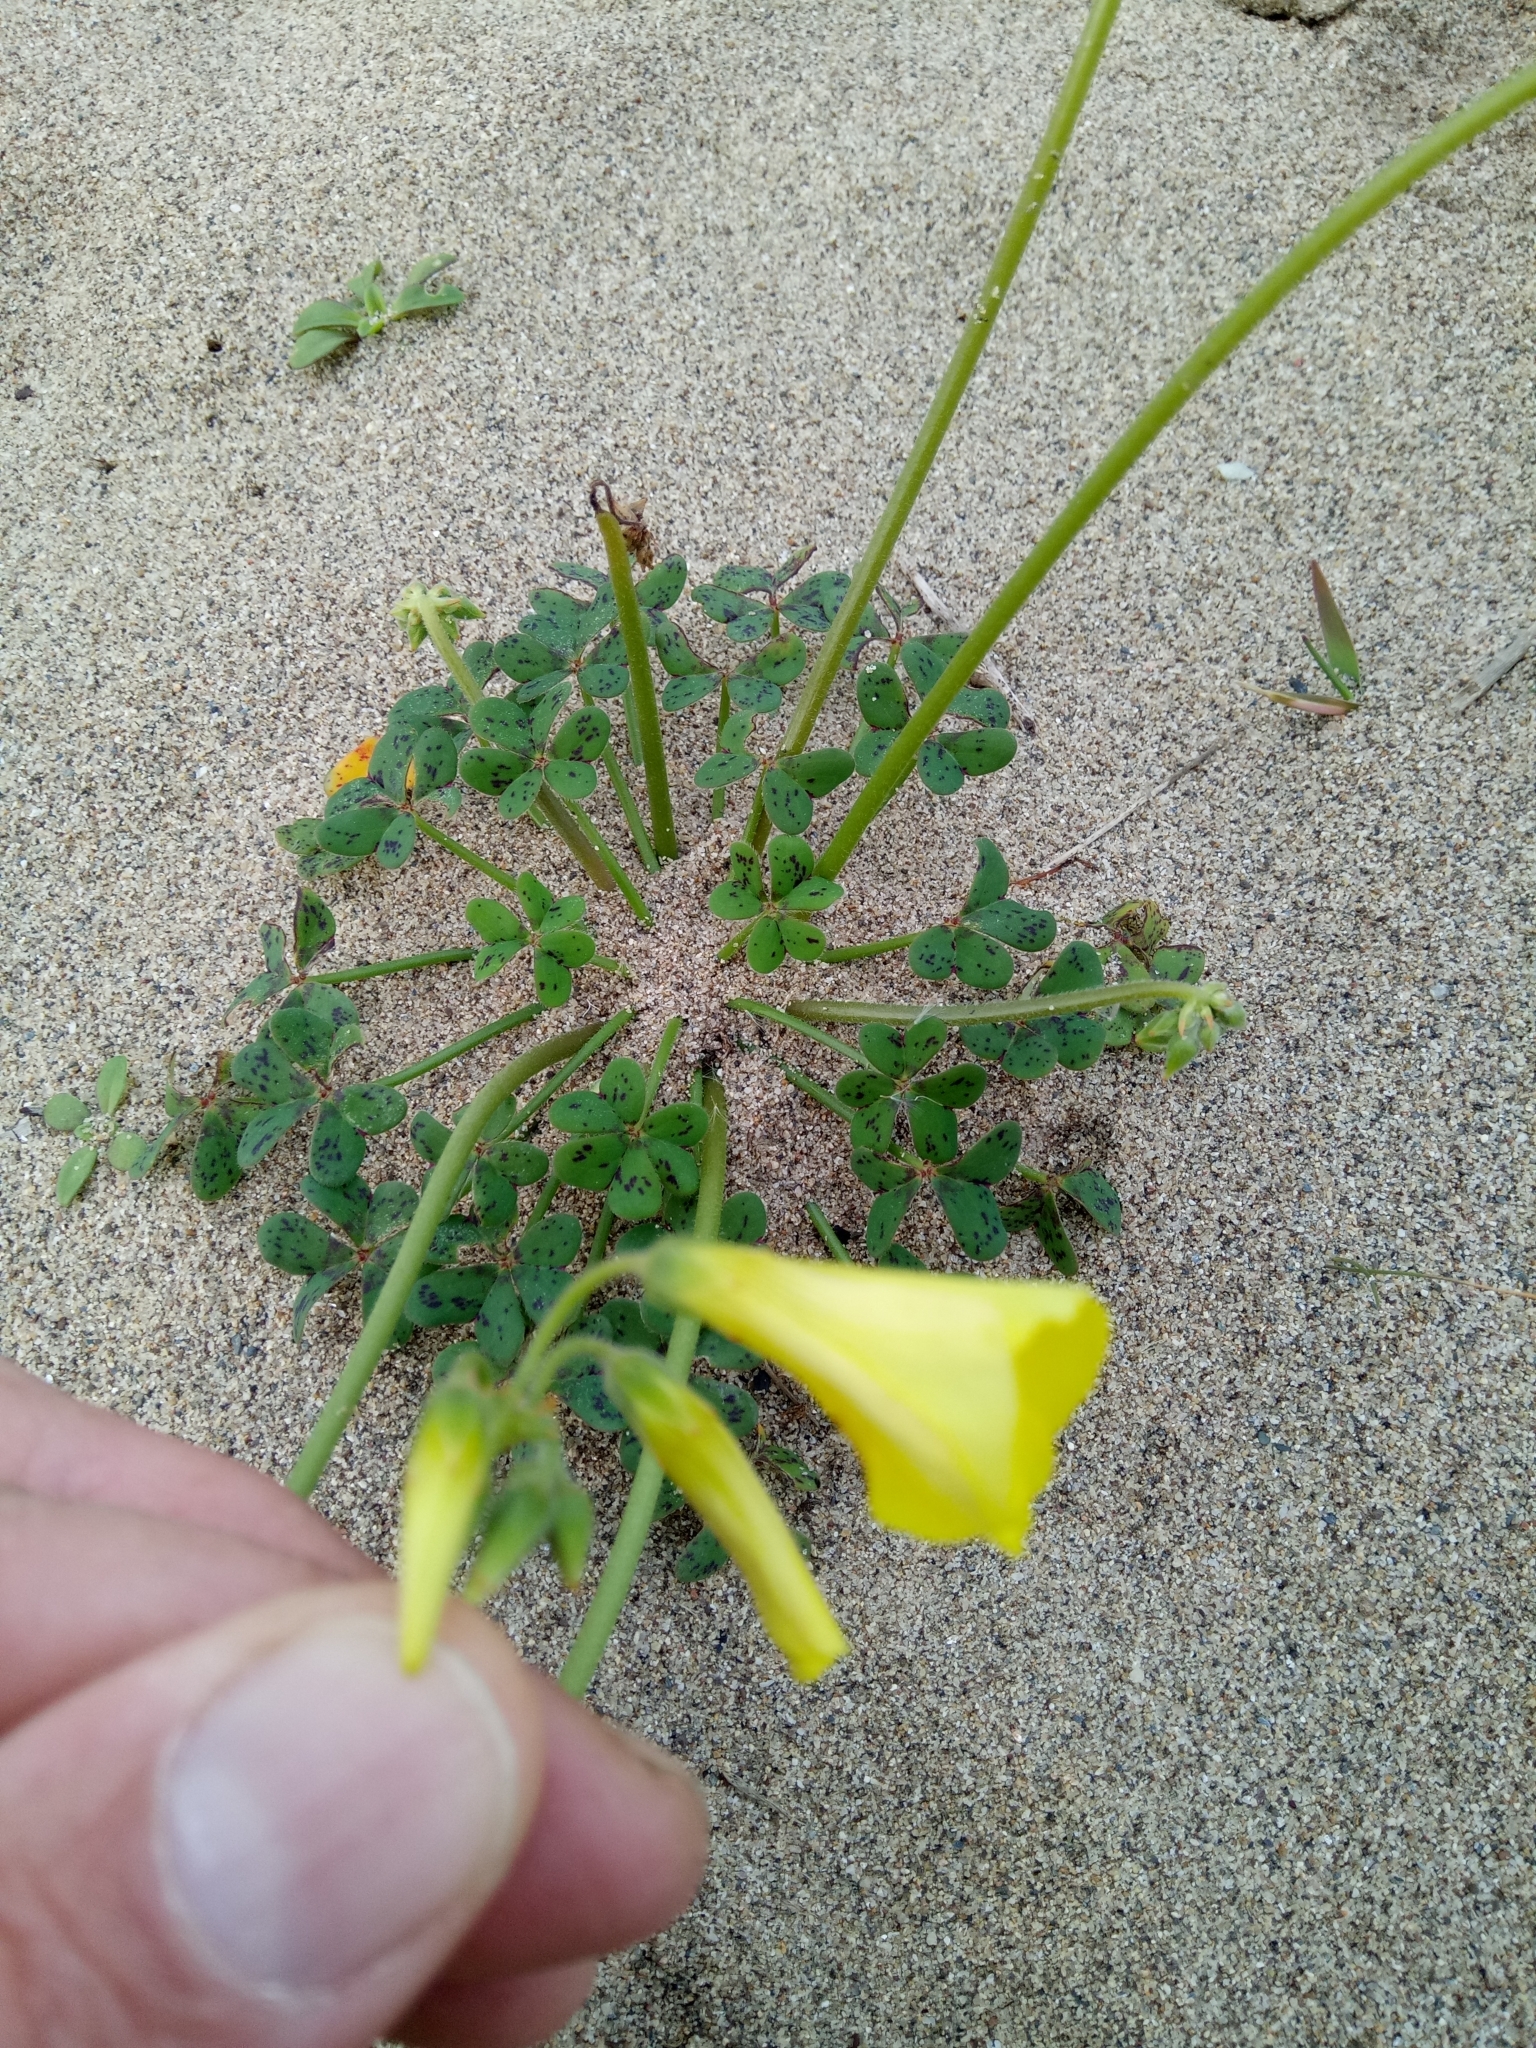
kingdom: Plantae
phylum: Tracheophyta
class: Magnoliopsida
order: Oxalidales
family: Oxalidaceae
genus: Oxalis
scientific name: Oxalis pes-caprae
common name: Bermuda-buttercup
